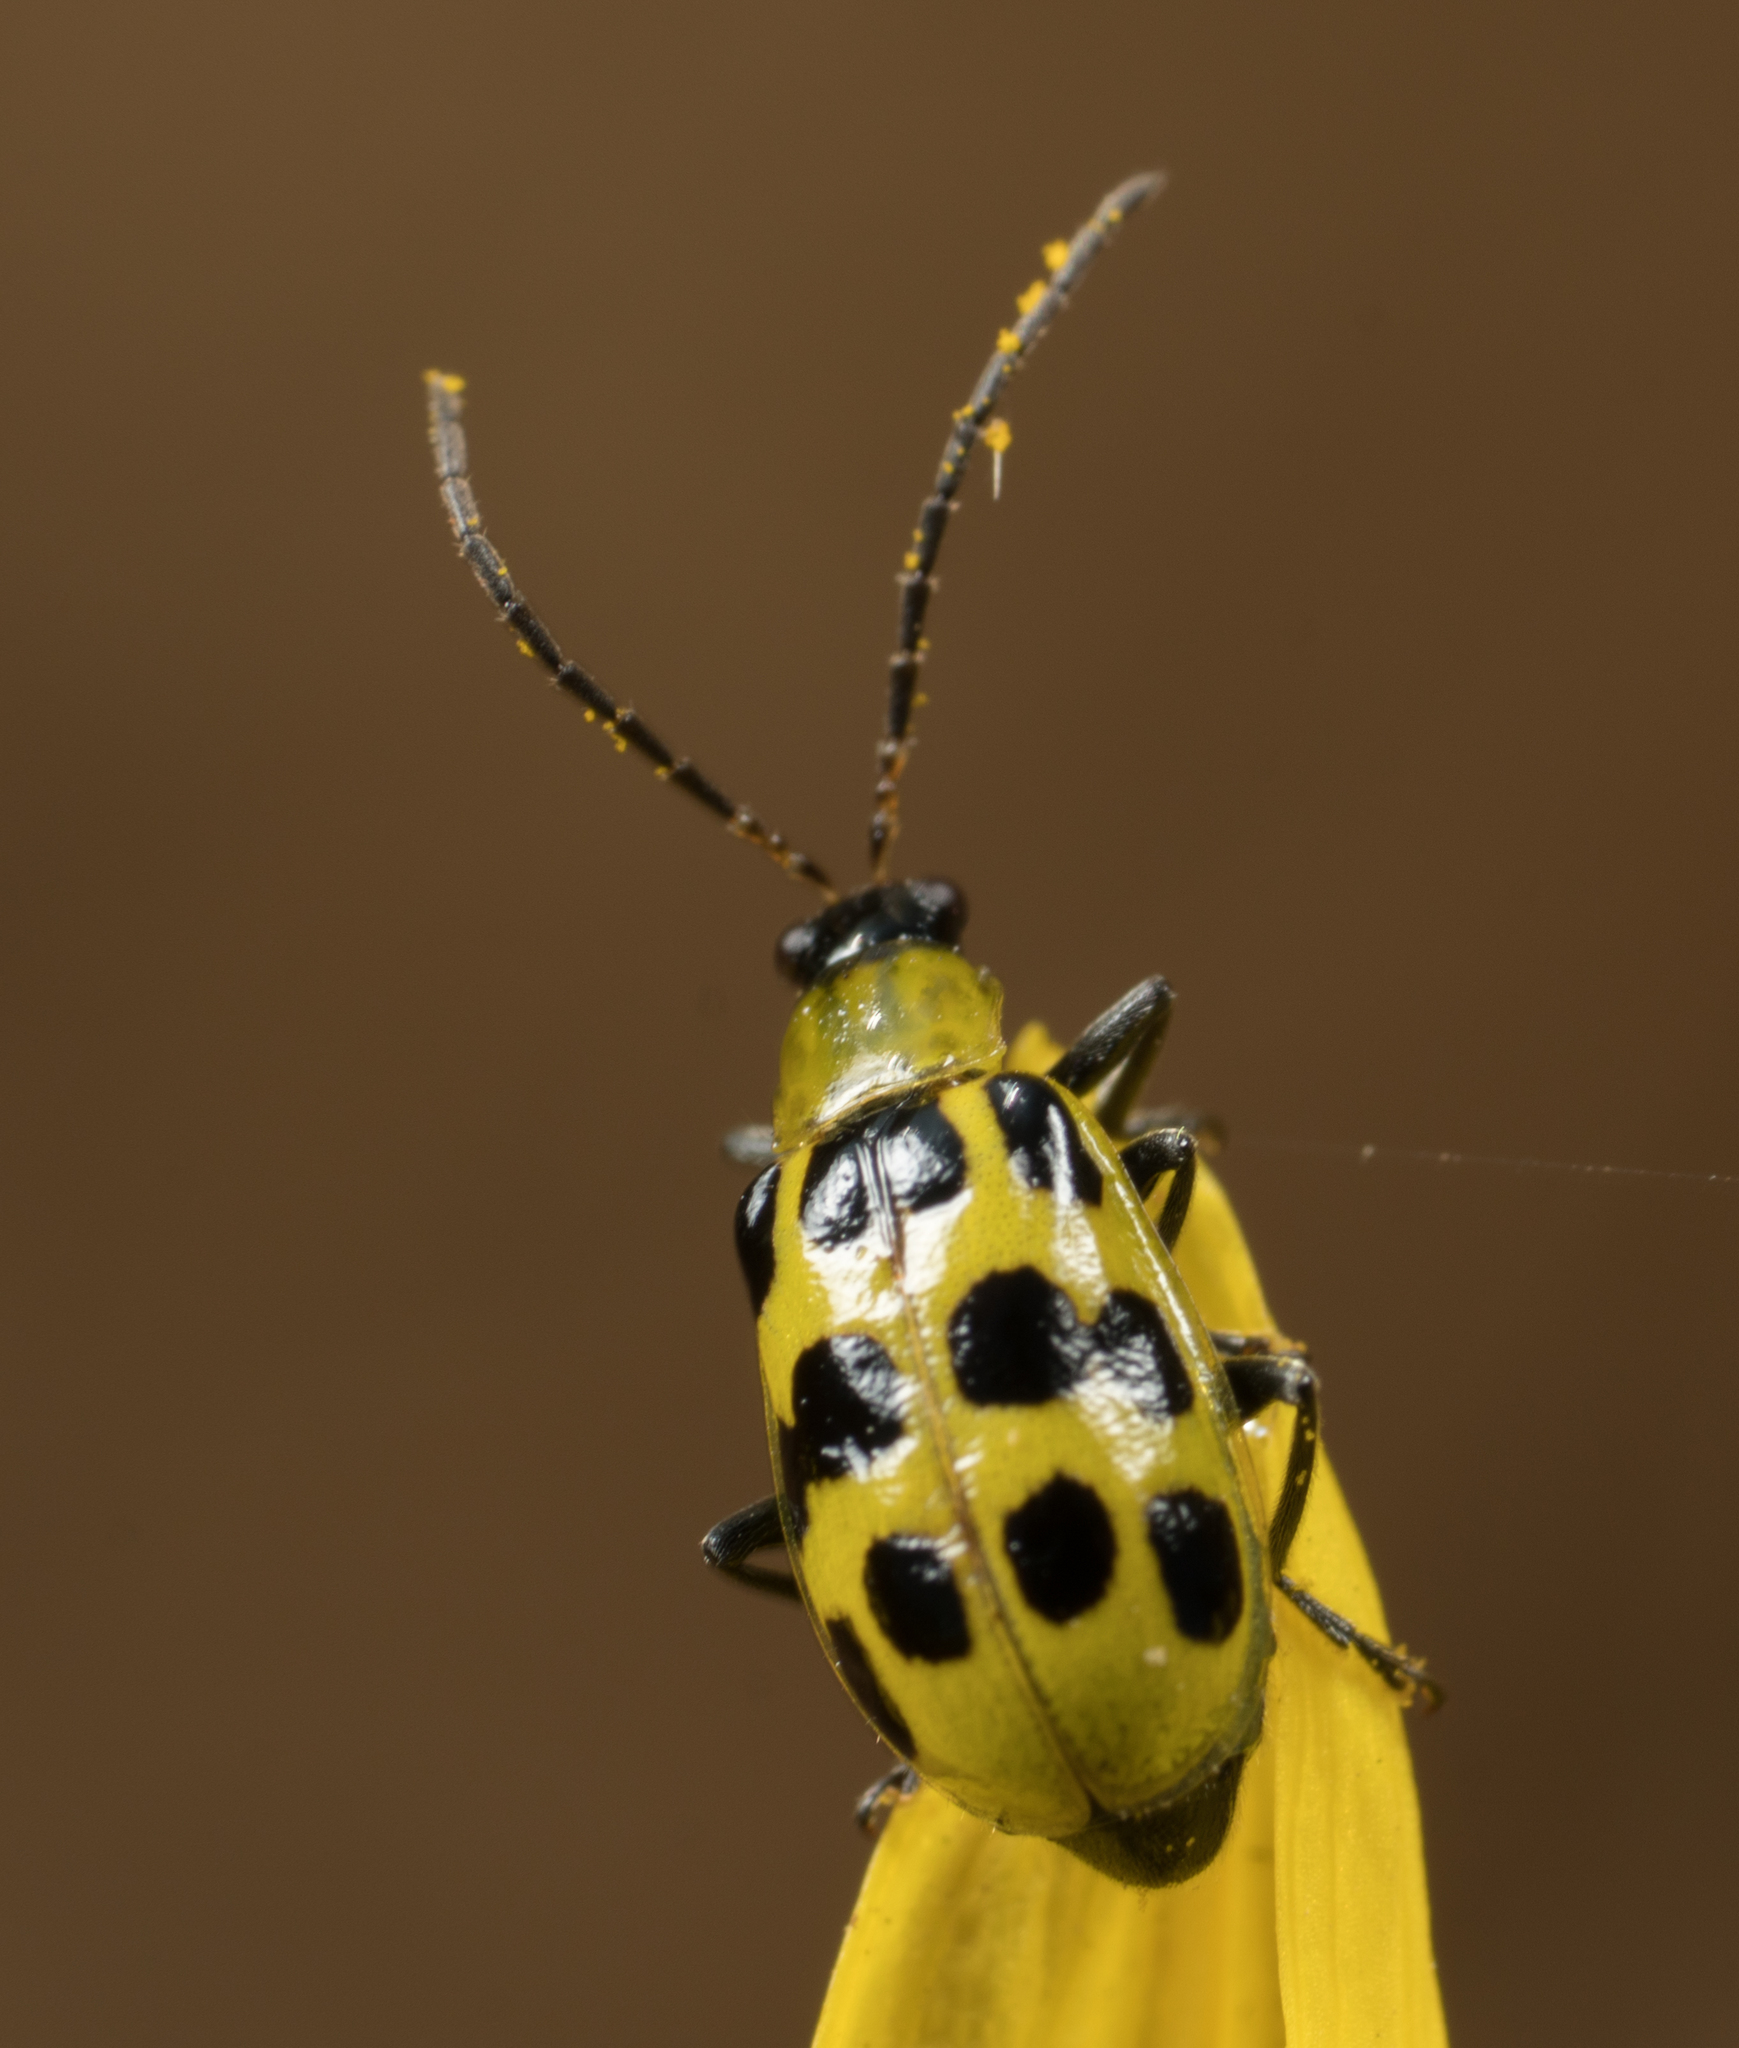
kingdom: Animalia
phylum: Arthropoda
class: Insecta
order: Coleoptera
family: Chrysomelidae
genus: Diabrotica
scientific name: Diabrotica undecimpunctata
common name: Spotted cucumber beetle
